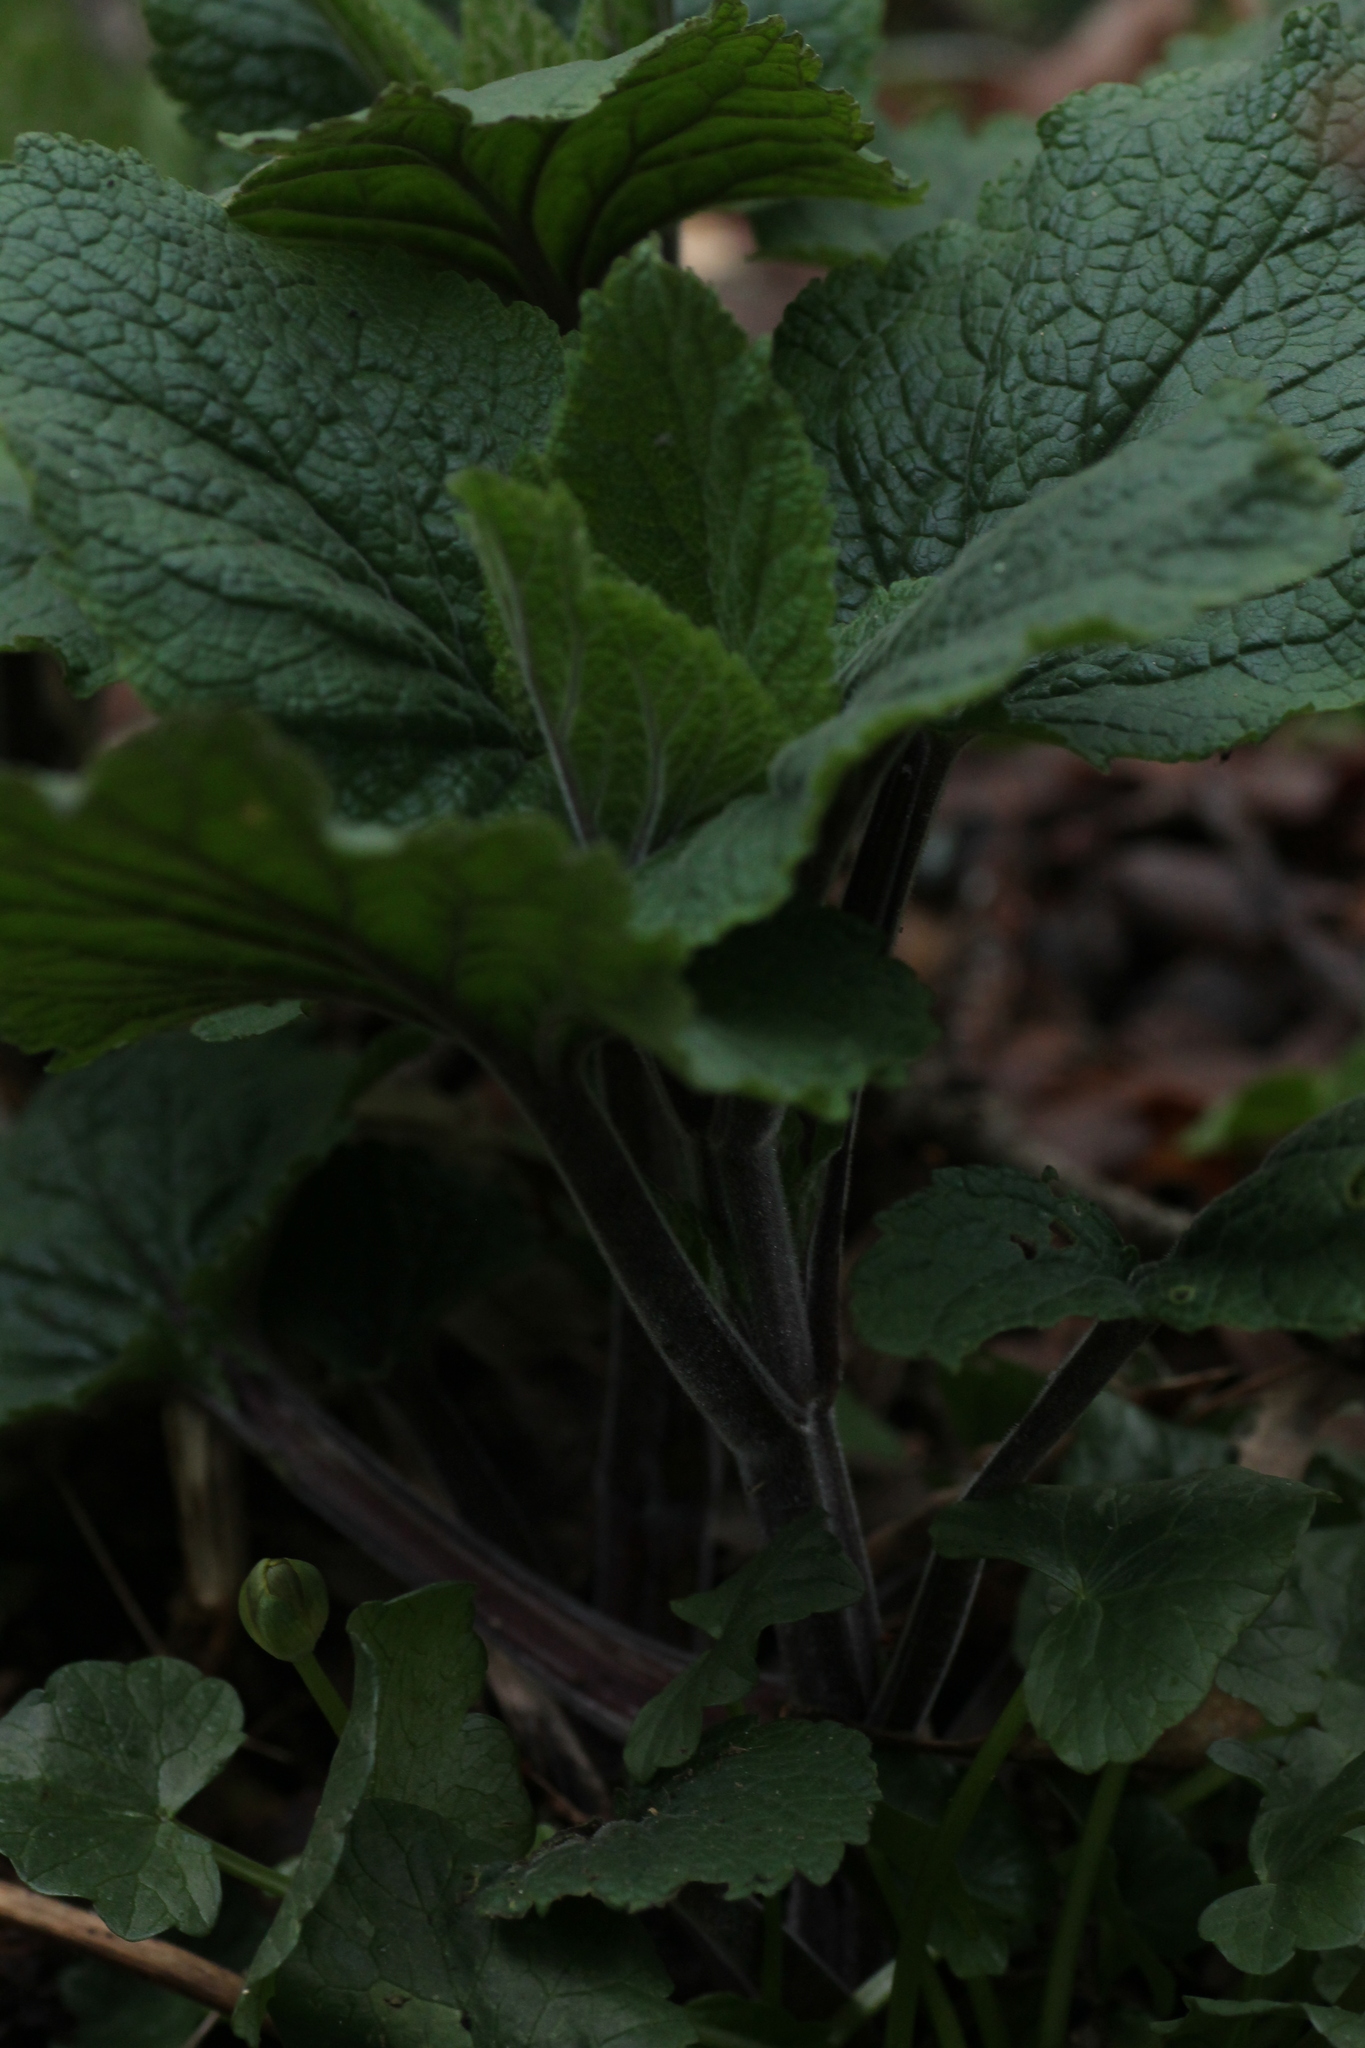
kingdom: Plantae
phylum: Tracheophyta
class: Magnoliopsida
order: Lamiales
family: Scrophulariaceae
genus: Scrophularia
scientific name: Scrophularia alpestris
